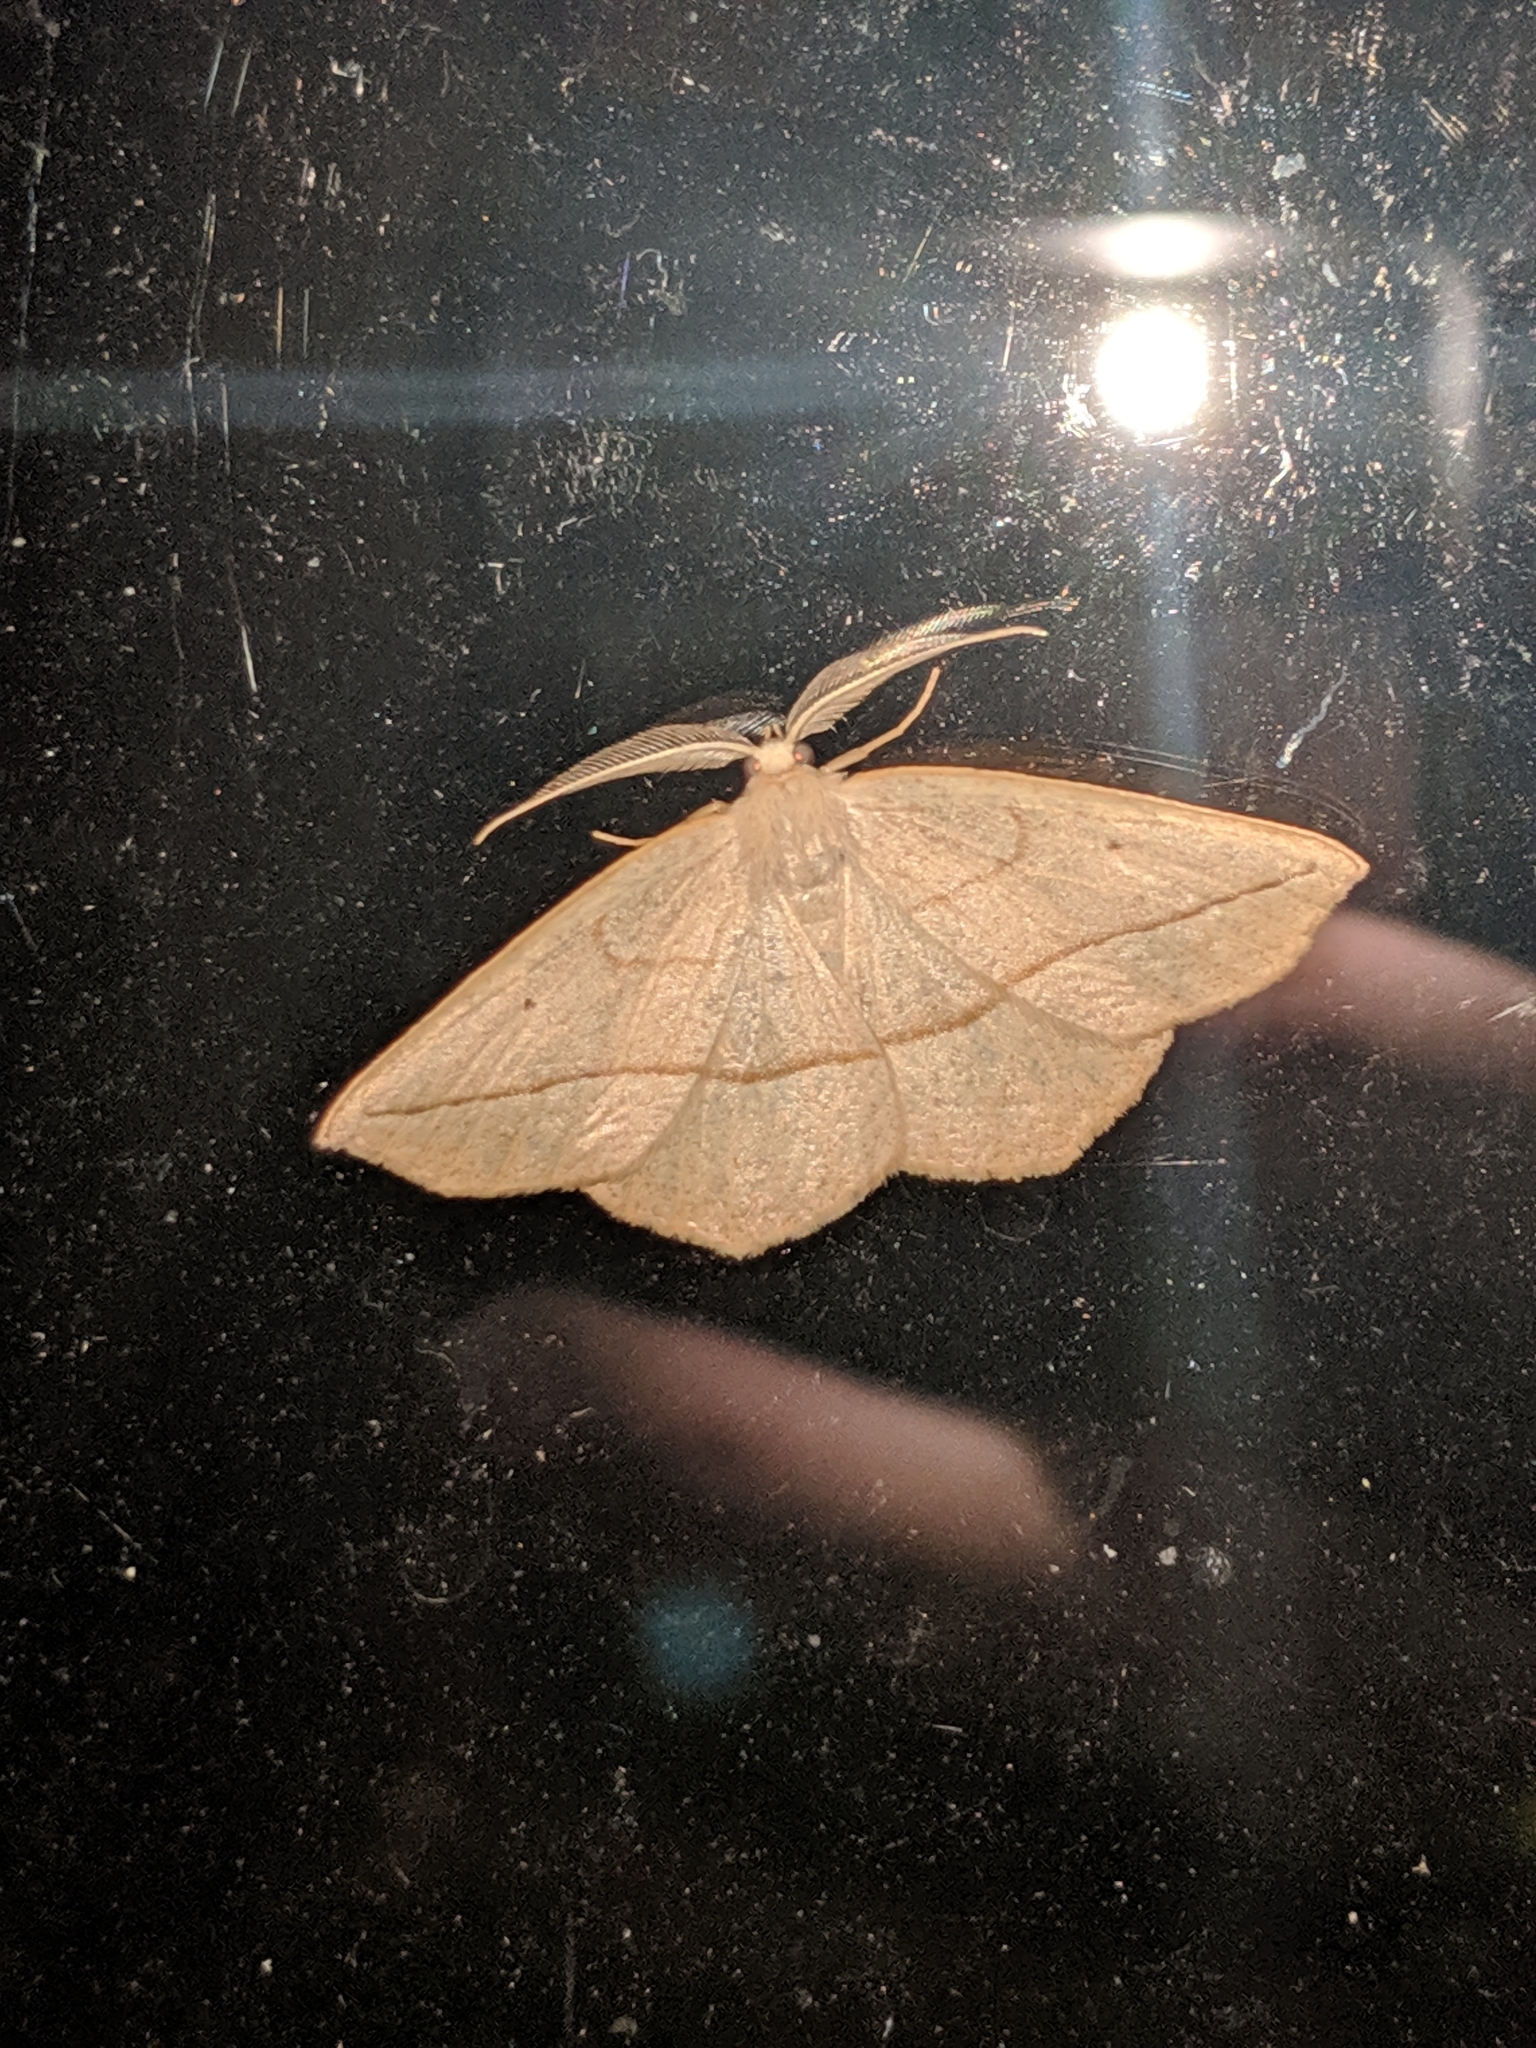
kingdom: Animalia
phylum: Arthropoda
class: Insecta
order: Lepidoptera
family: Geometridae
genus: Eusarca
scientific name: Eusarca confusaria
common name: Confused eusarca
